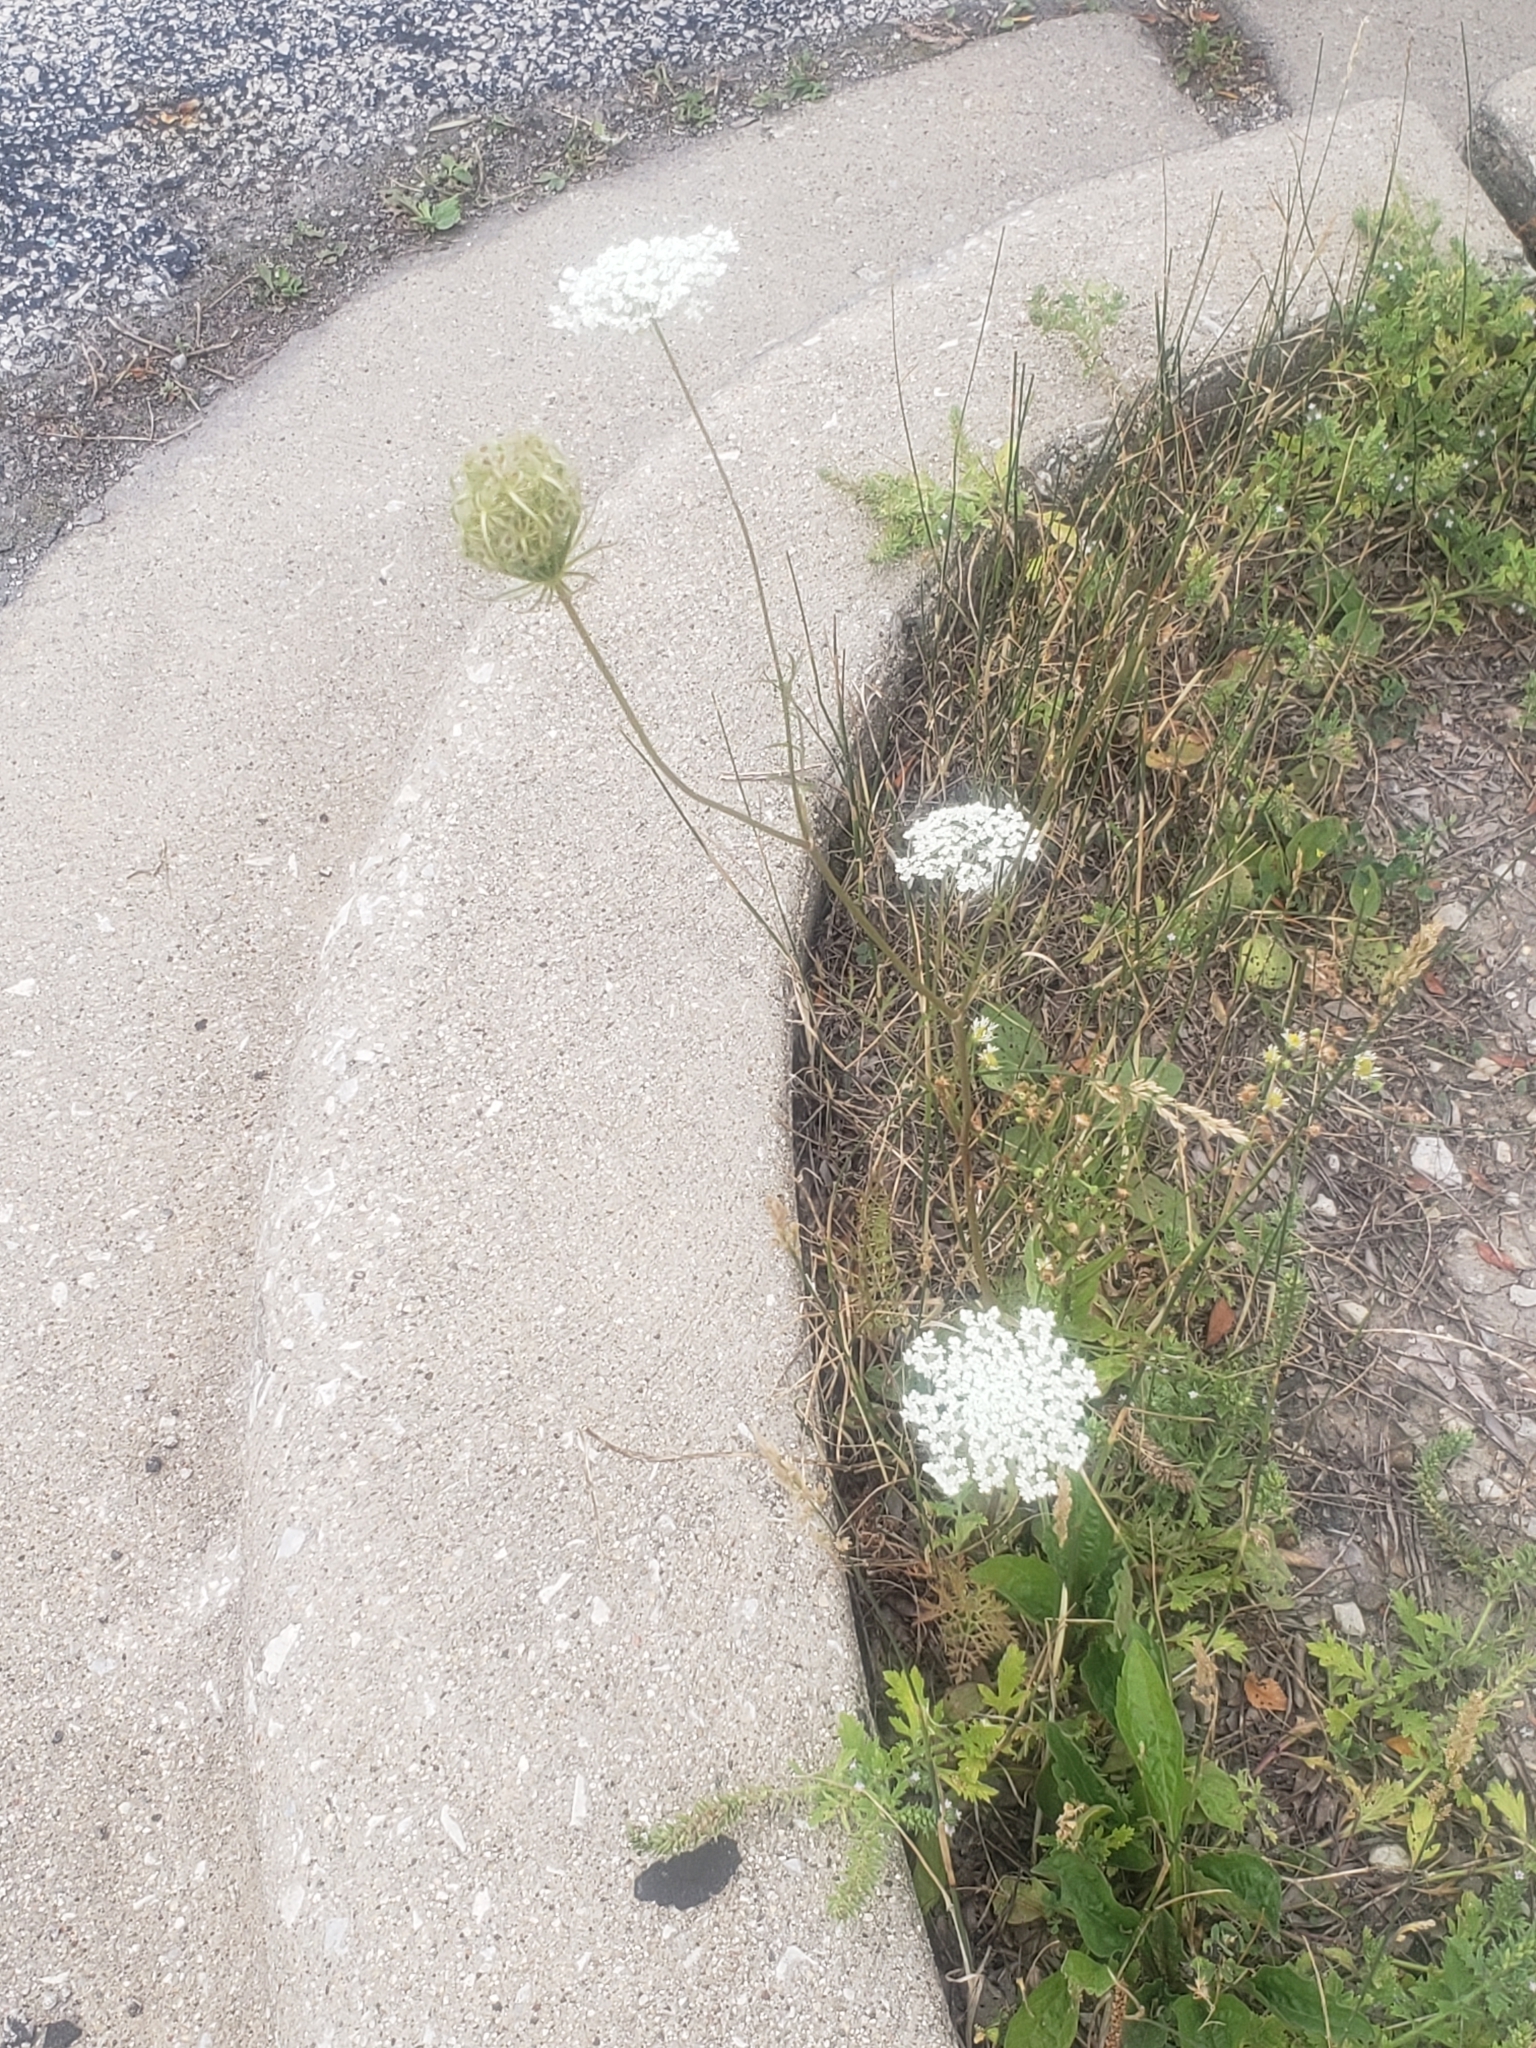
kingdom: Plantae
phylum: Tracheophyta
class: Magnoliopsida
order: Apiales
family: Apiaceae
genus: Daucus
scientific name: Daucus carota
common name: Wild carrot
